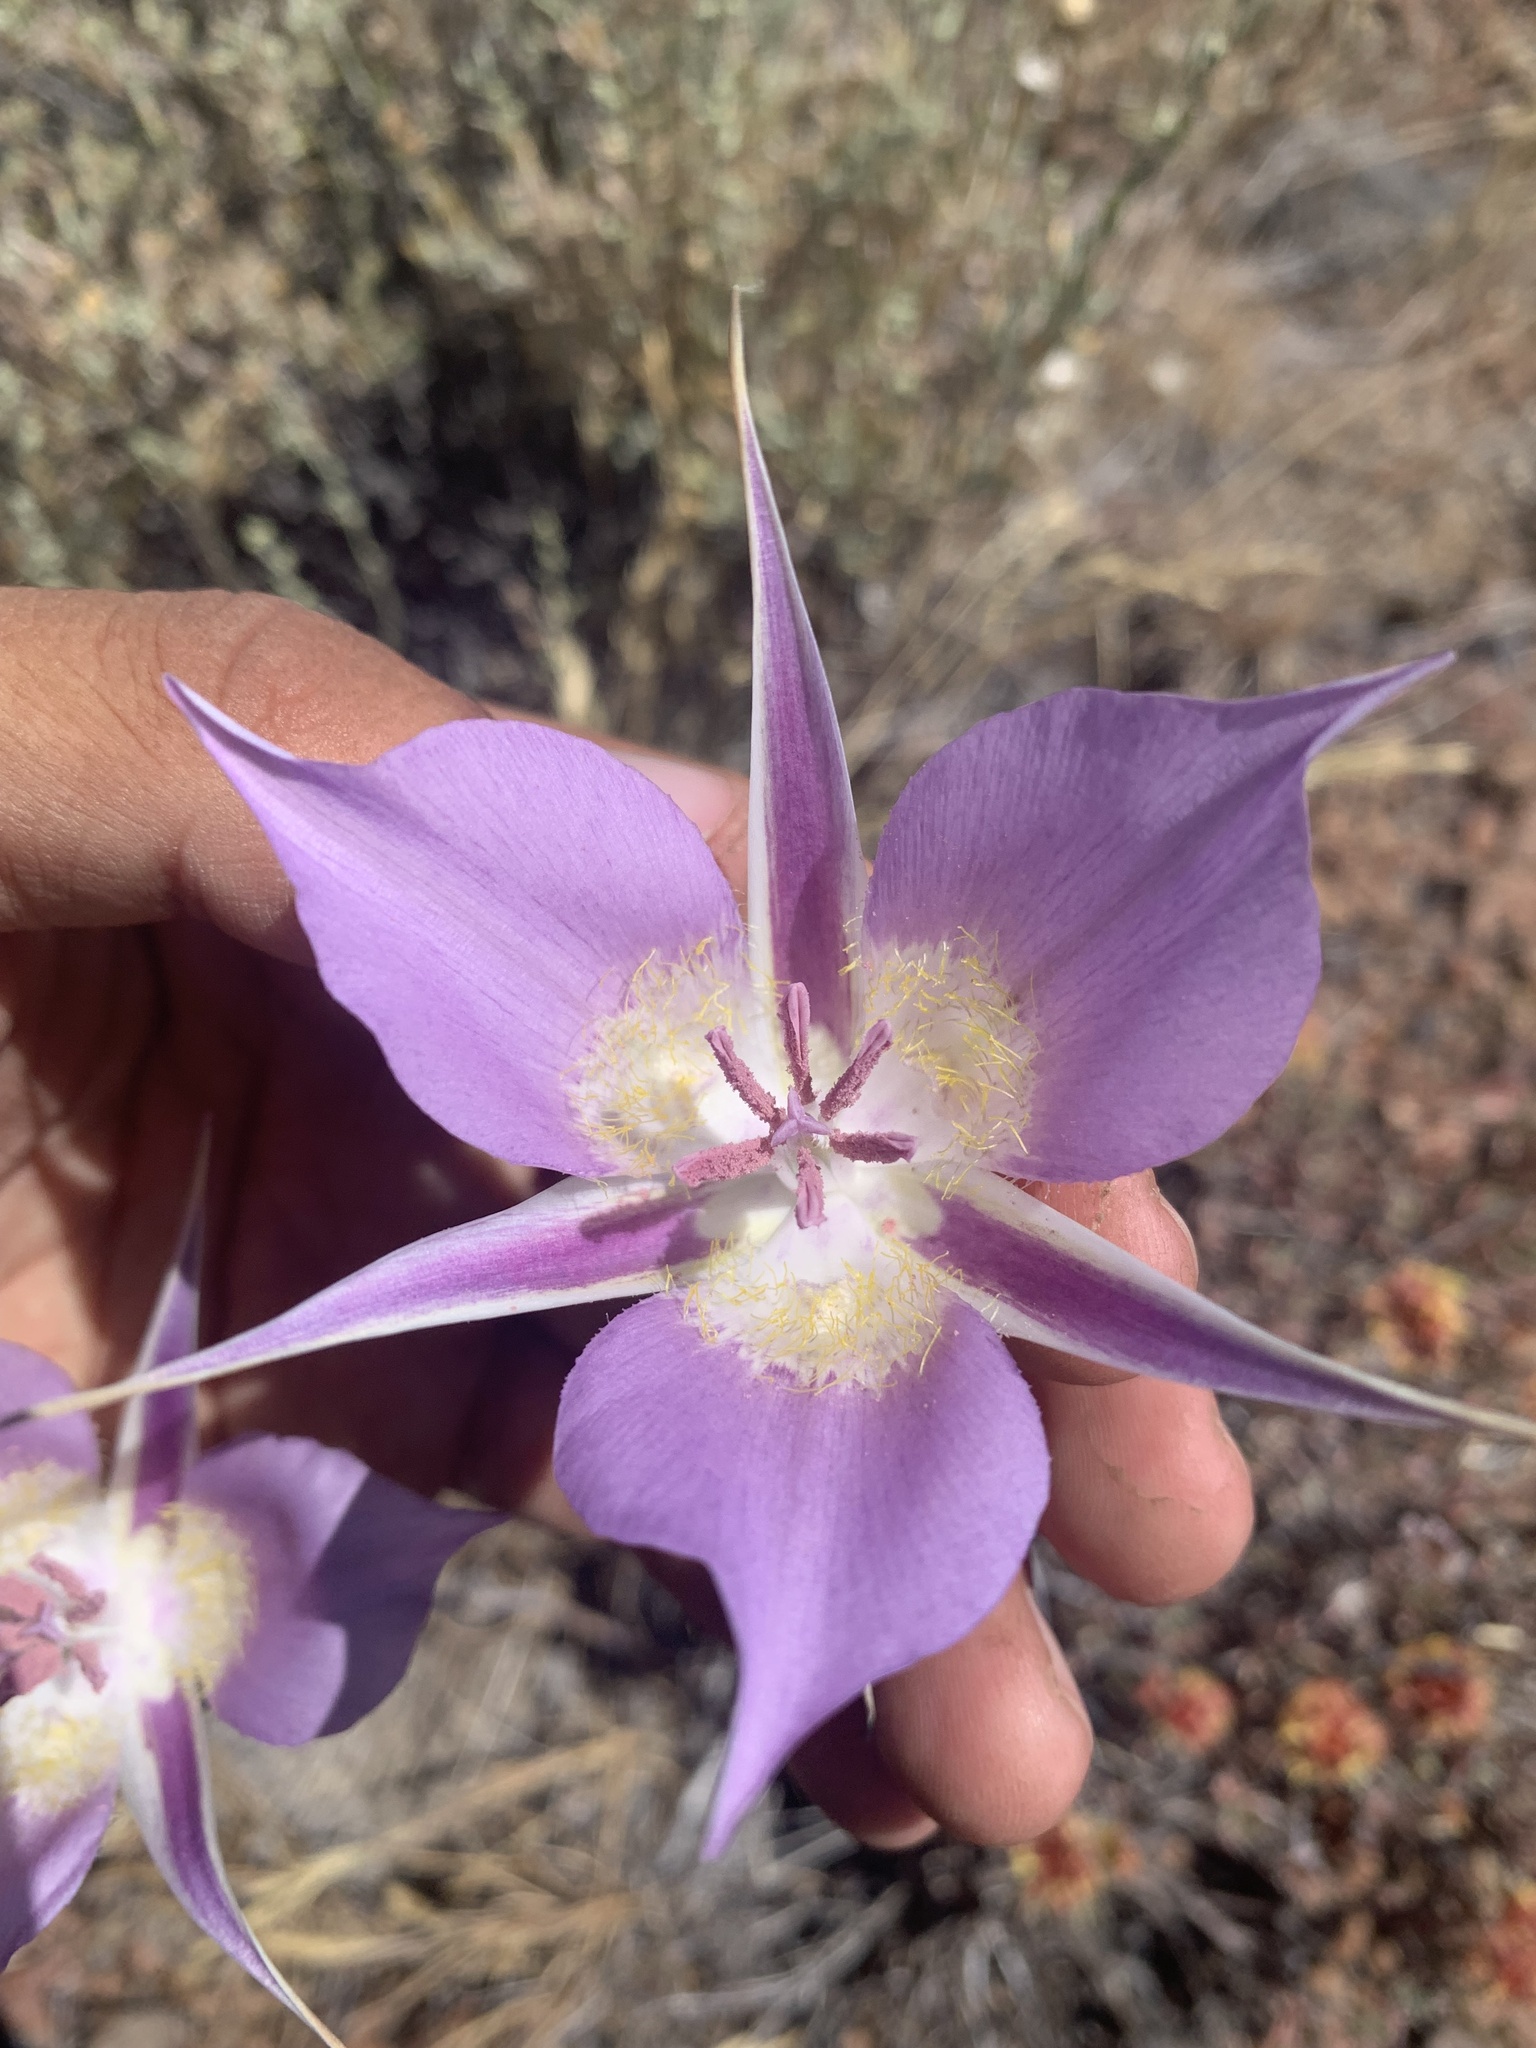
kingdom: Plantae
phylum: Tracheophyta
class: Liliopsida
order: Liliales
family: Liliaceae
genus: Calochortus
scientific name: Calochortus macrocarpus
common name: Green-band mariposa lily
